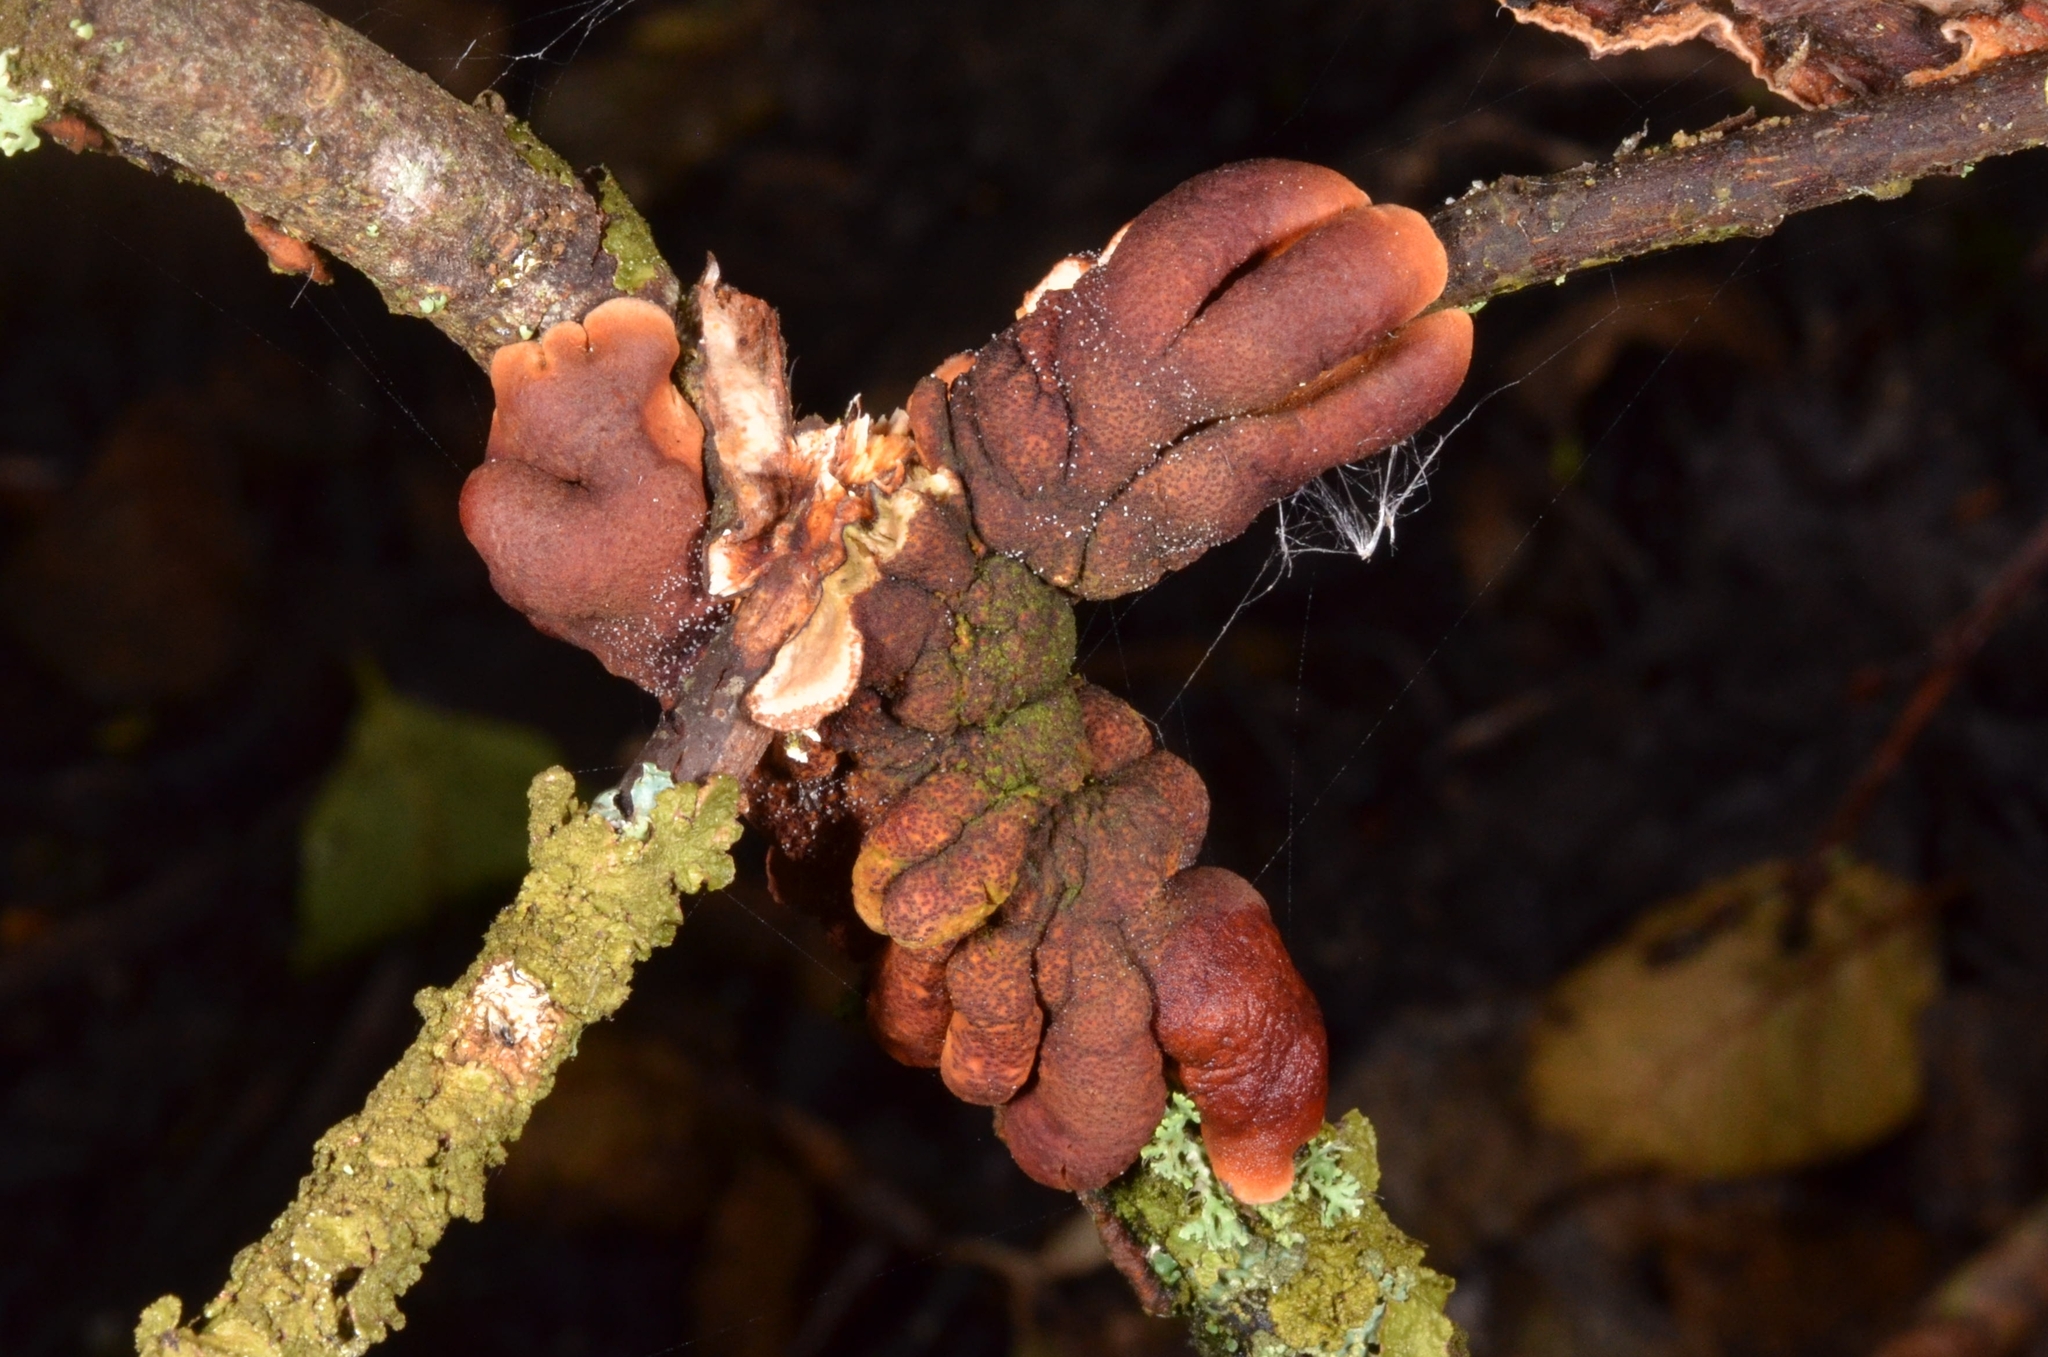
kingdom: Fungi
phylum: Ascomycota
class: Sordariomycetes
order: Hypocreales
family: Hypocreaceae
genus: Hypocreopsis
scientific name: Hypocreopsis lichenoides
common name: Willow gloves
